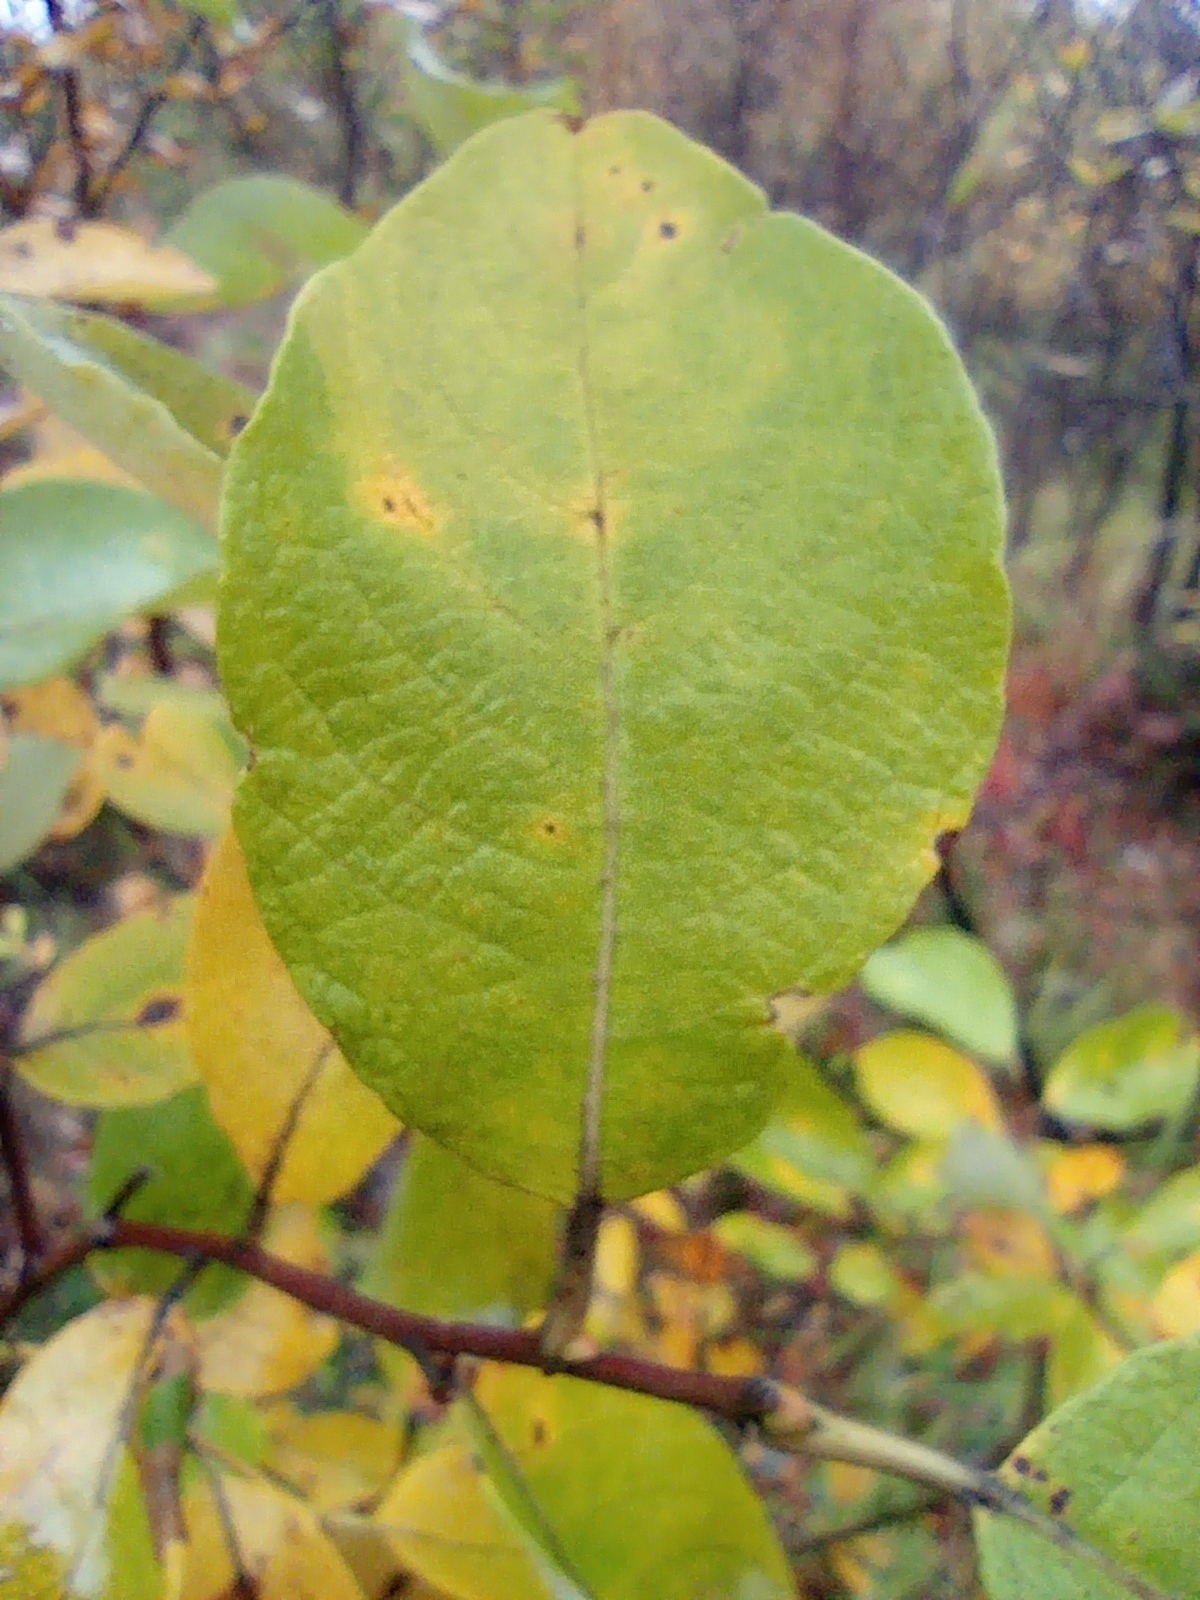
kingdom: Plantae
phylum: Tracheophyta
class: Magnoliopsida
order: Malpighiales
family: Salicaceae
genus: Salix
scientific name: Salix caprea
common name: Goat willow
